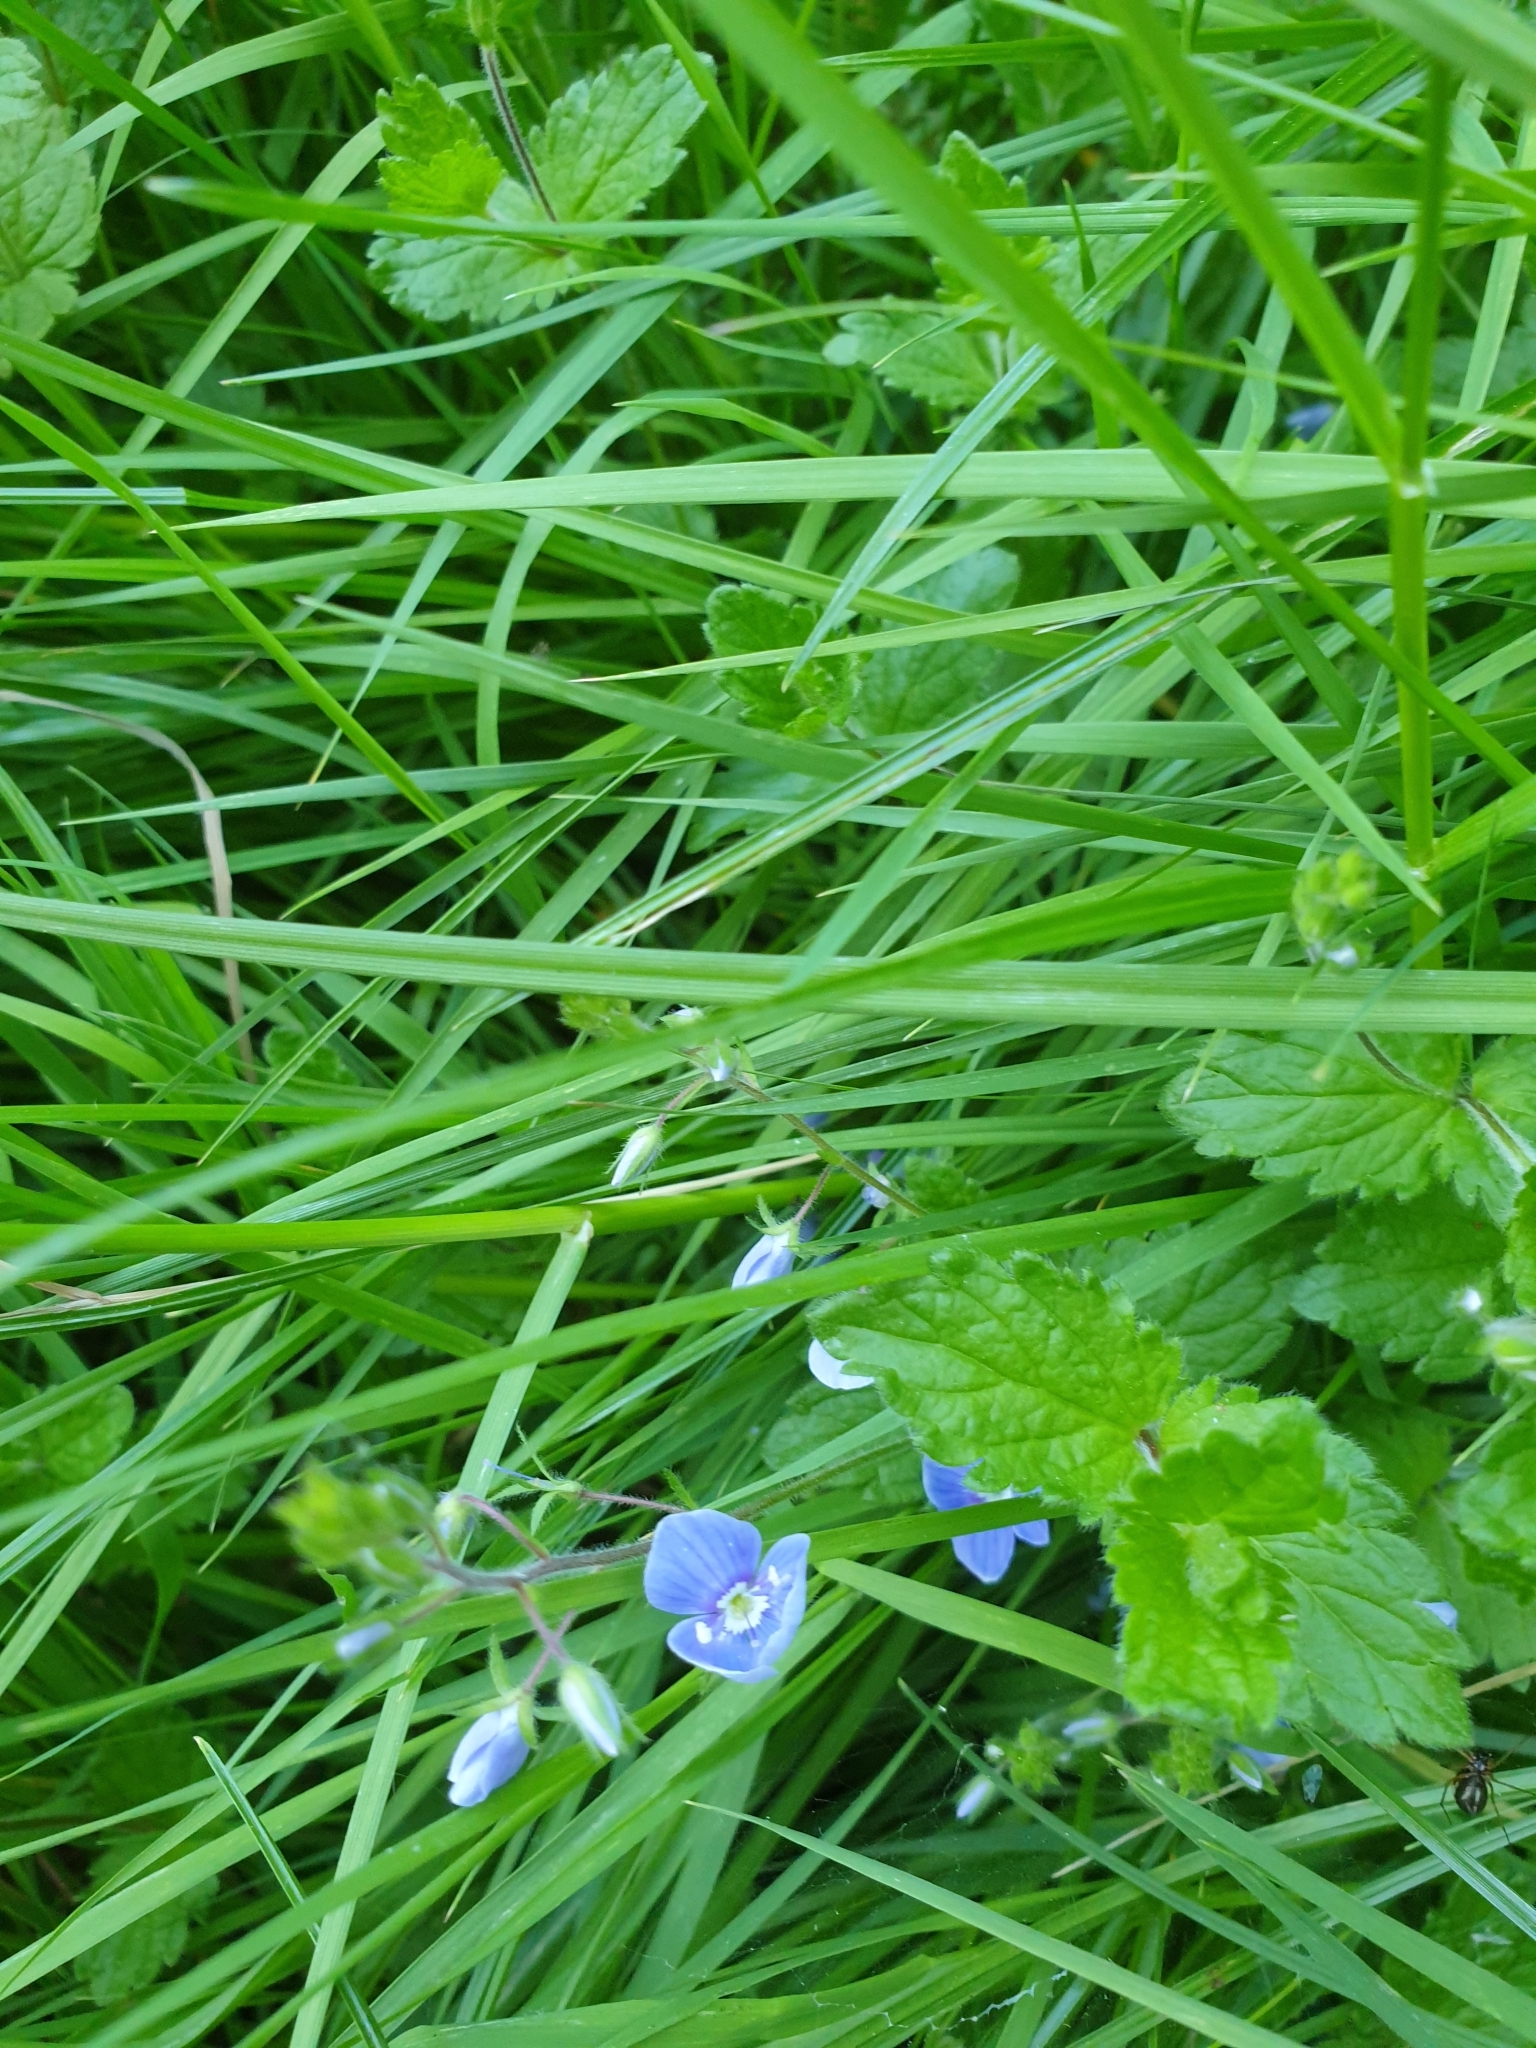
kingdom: Plantae
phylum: Tracheophyta
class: Magnoliopsida
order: Lamiales
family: Plantaginaceae
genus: Veronica
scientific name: Veronica chamaedrys
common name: Germander speedwell
